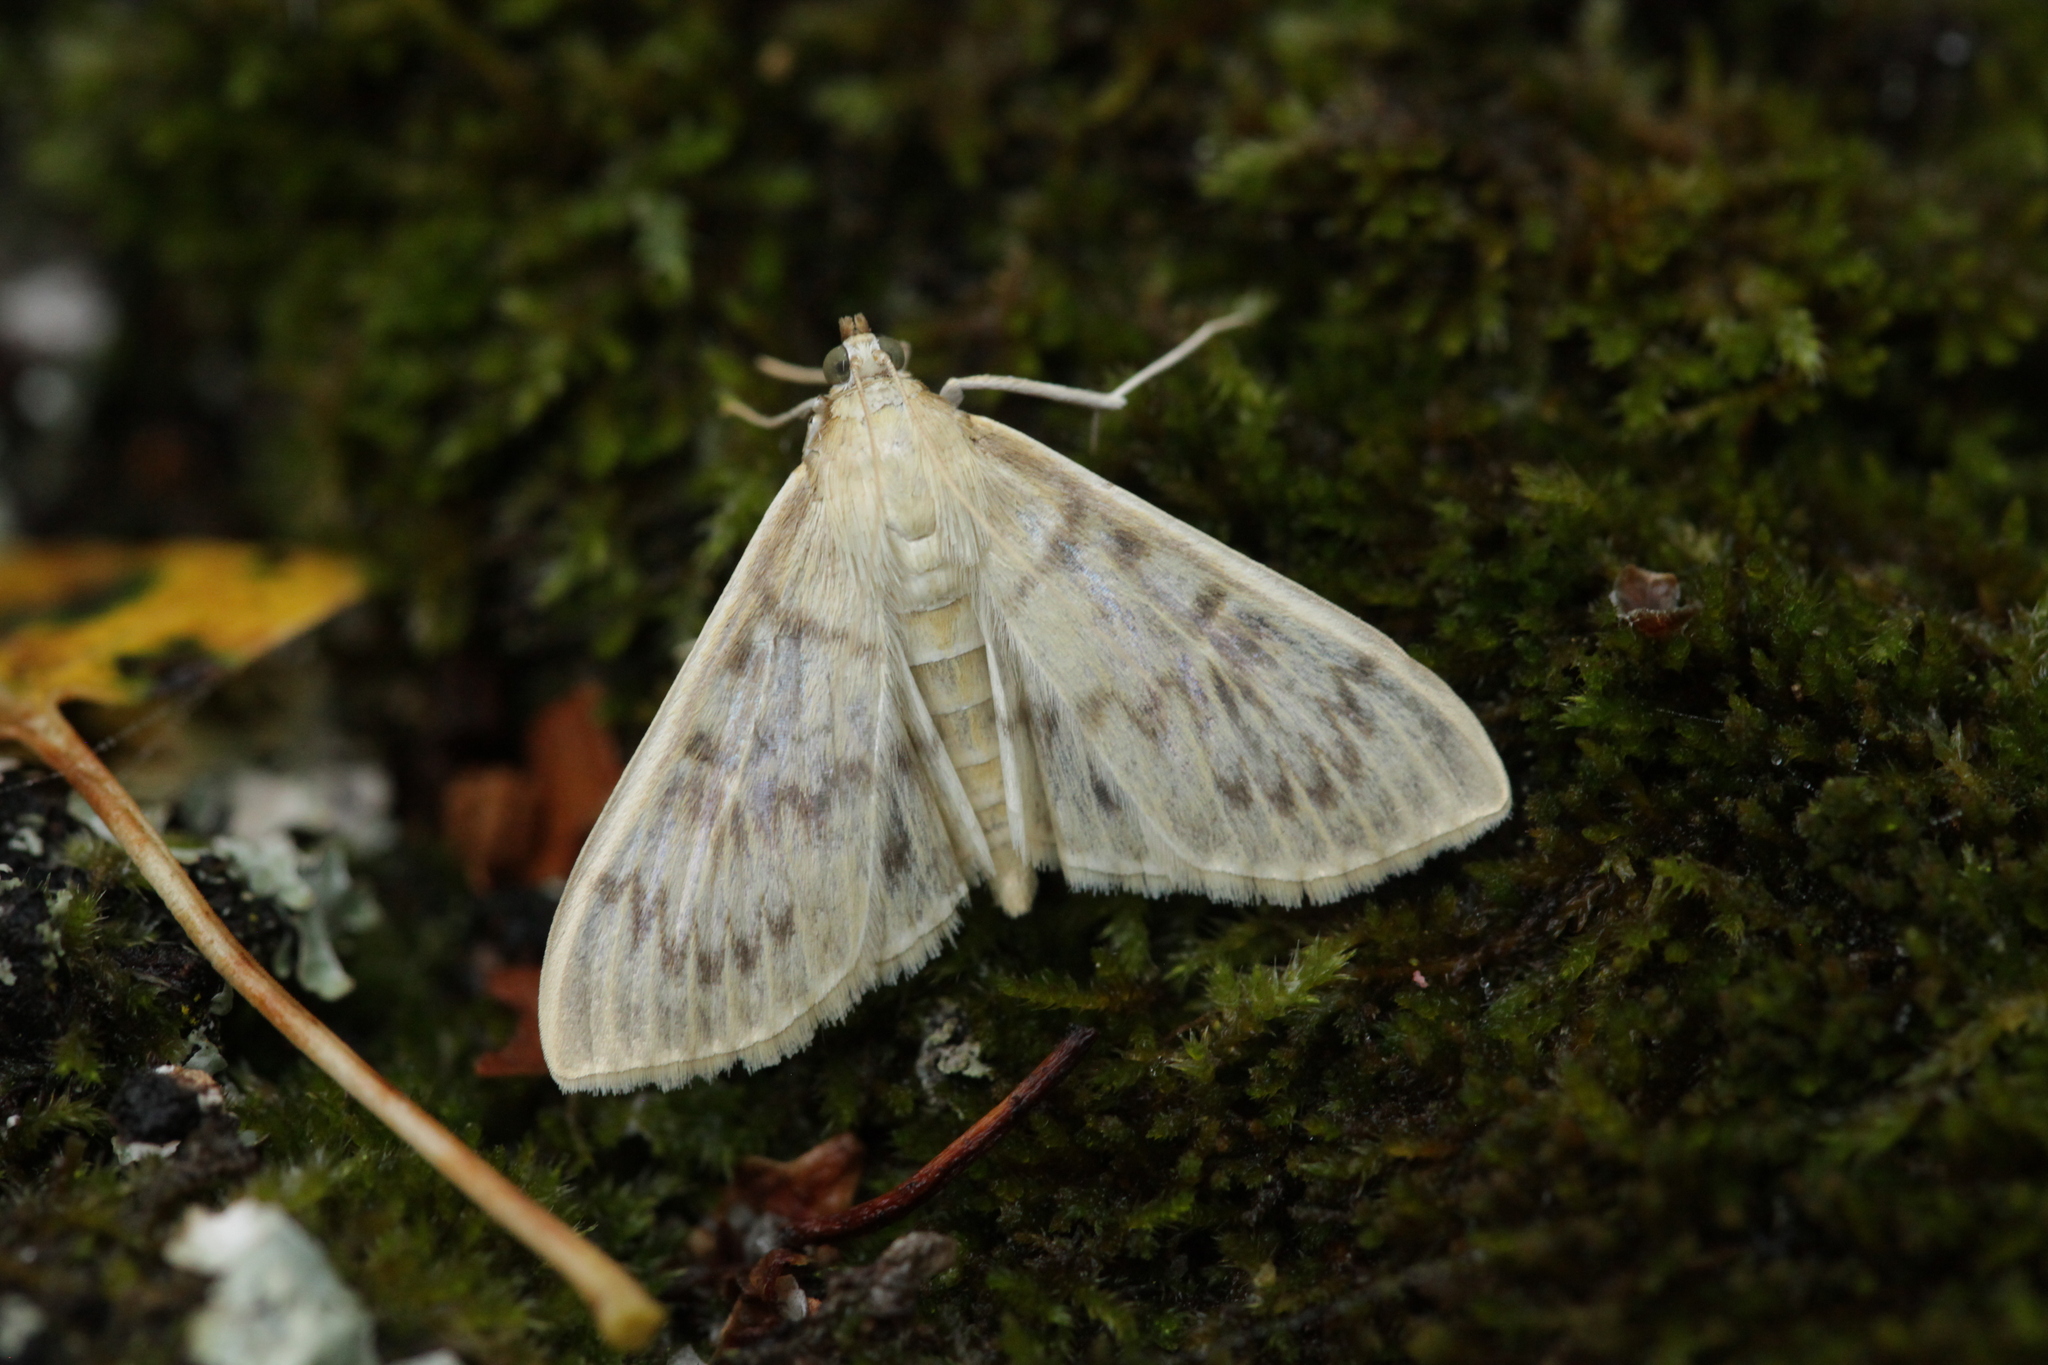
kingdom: Animalia
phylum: Arthropoda
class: Insecta
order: Lepidoptera
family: Crambidae
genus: Patania
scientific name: Patania ruralis
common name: Mother of pearl
